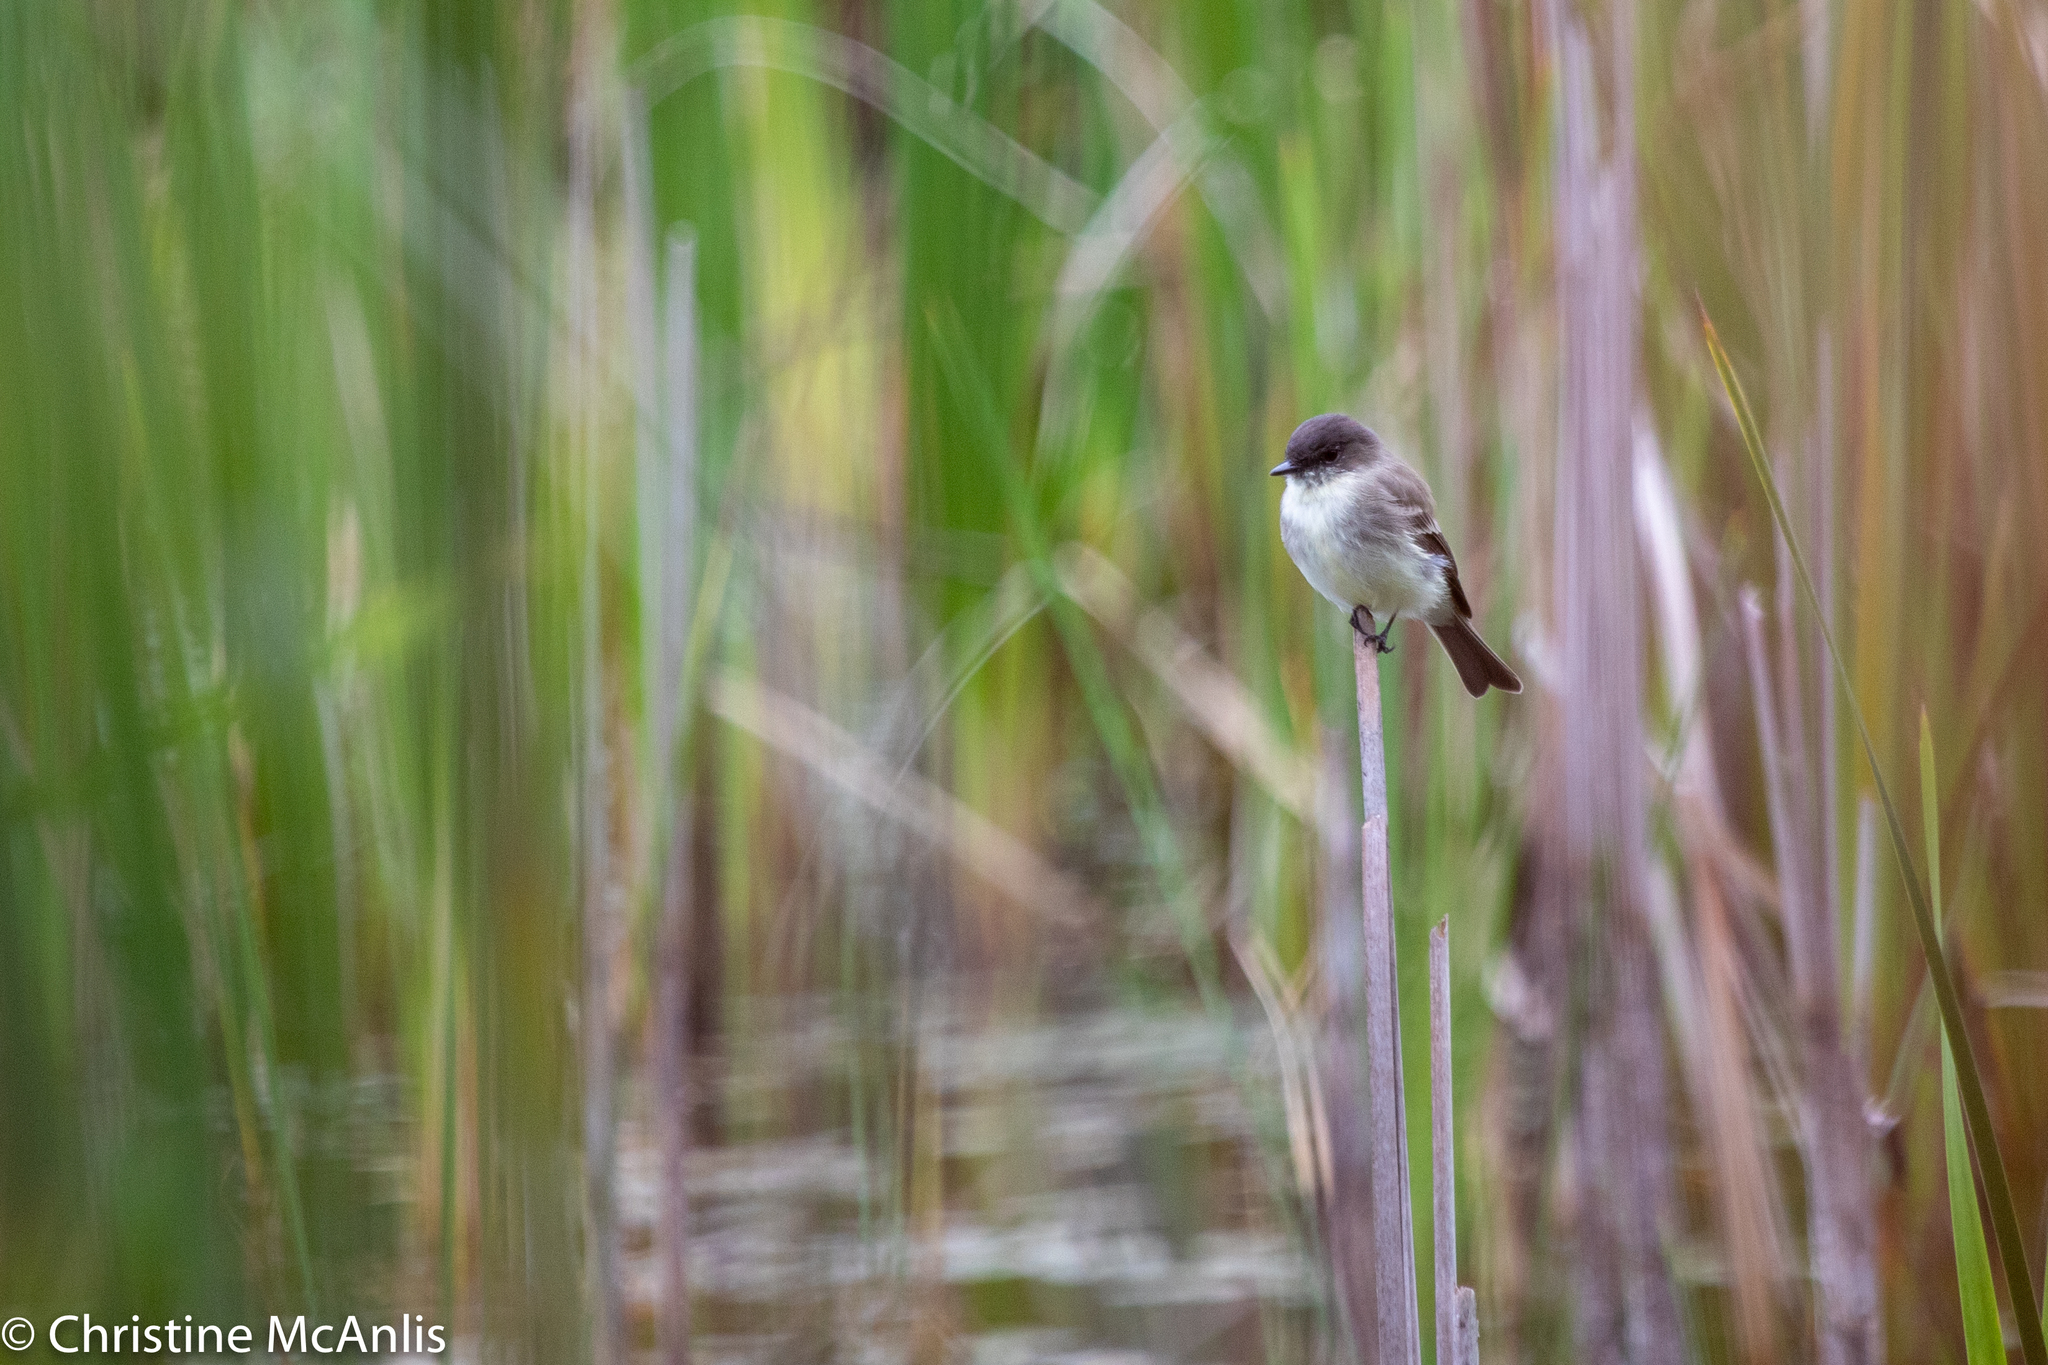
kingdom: Animalia
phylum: Chordata
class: Aves
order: Passeriformes
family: Tyrannidae
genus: Sayornis
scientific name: Sayornis phoebe
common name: Eastern phoebe
